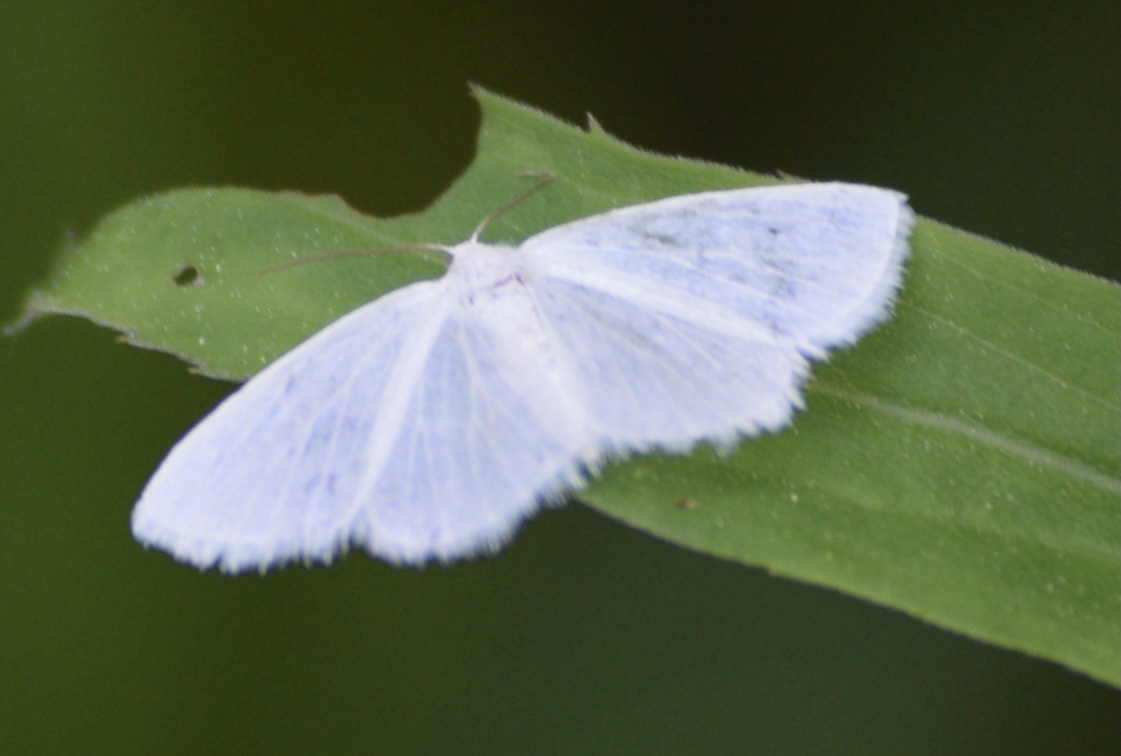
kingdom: Animalia
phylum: Arthropoda
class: Insecta
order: Lepidoptera
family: Geometridae
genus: Lomographa
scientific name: Lomographa vestaliata
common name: White spring moth
